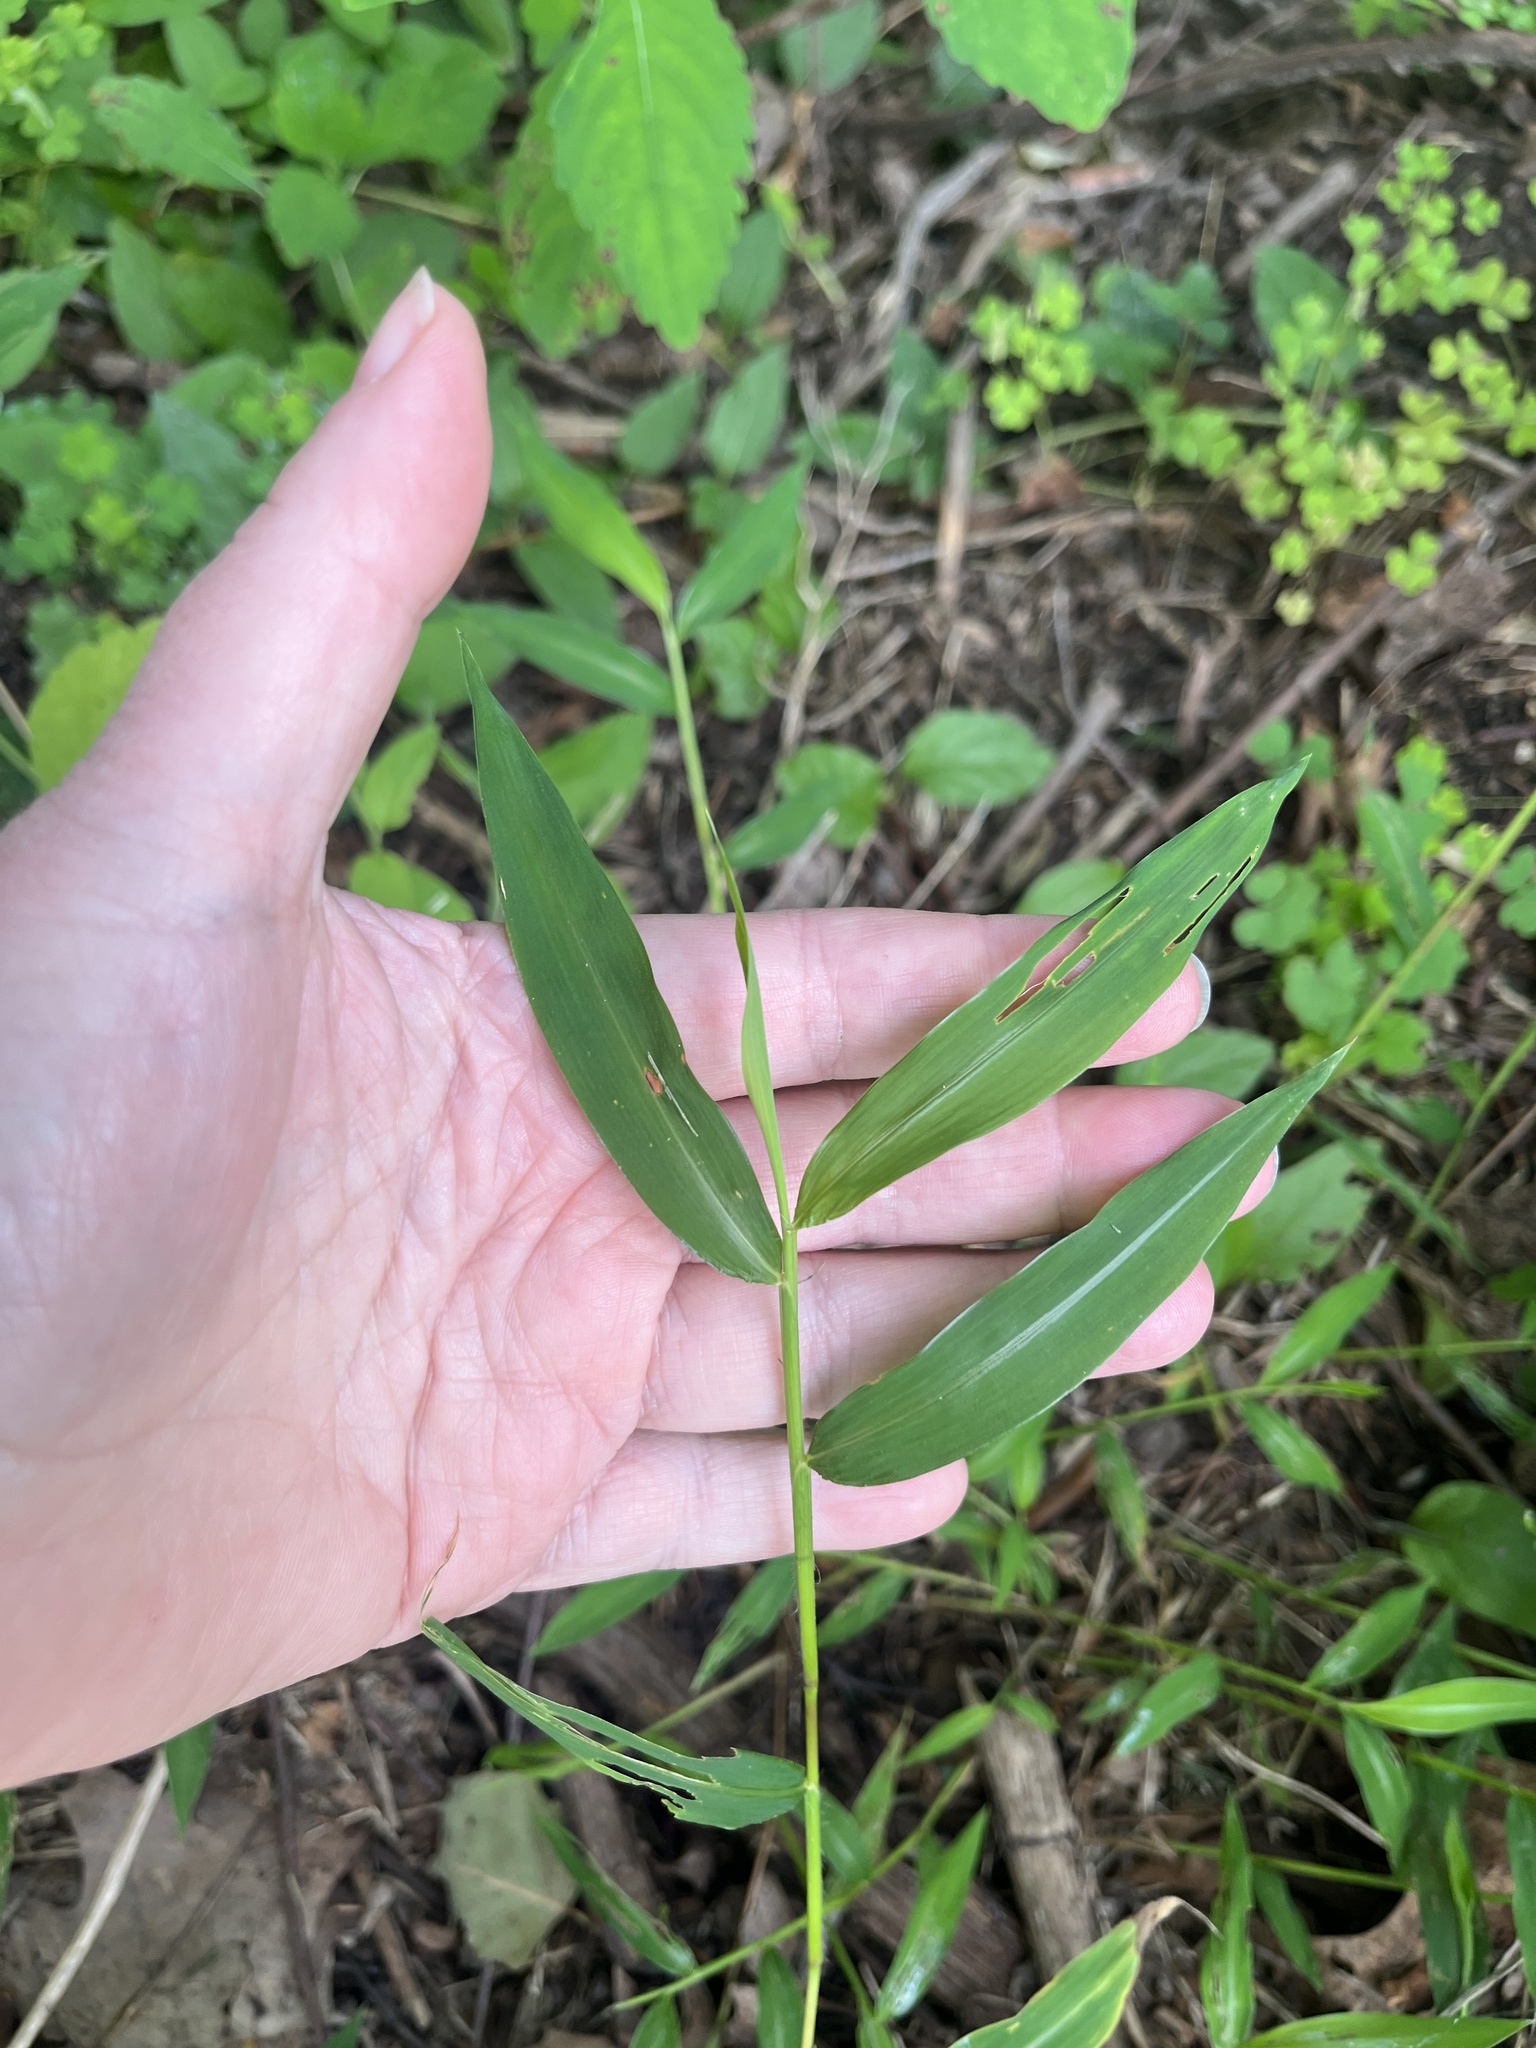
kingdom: Plantae
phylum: Tracheophyta
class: Liliopsida
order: Poales
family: Poaceae
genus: Microstegium
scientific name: Microstegium vimineum
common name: Japanese stiltgrass
